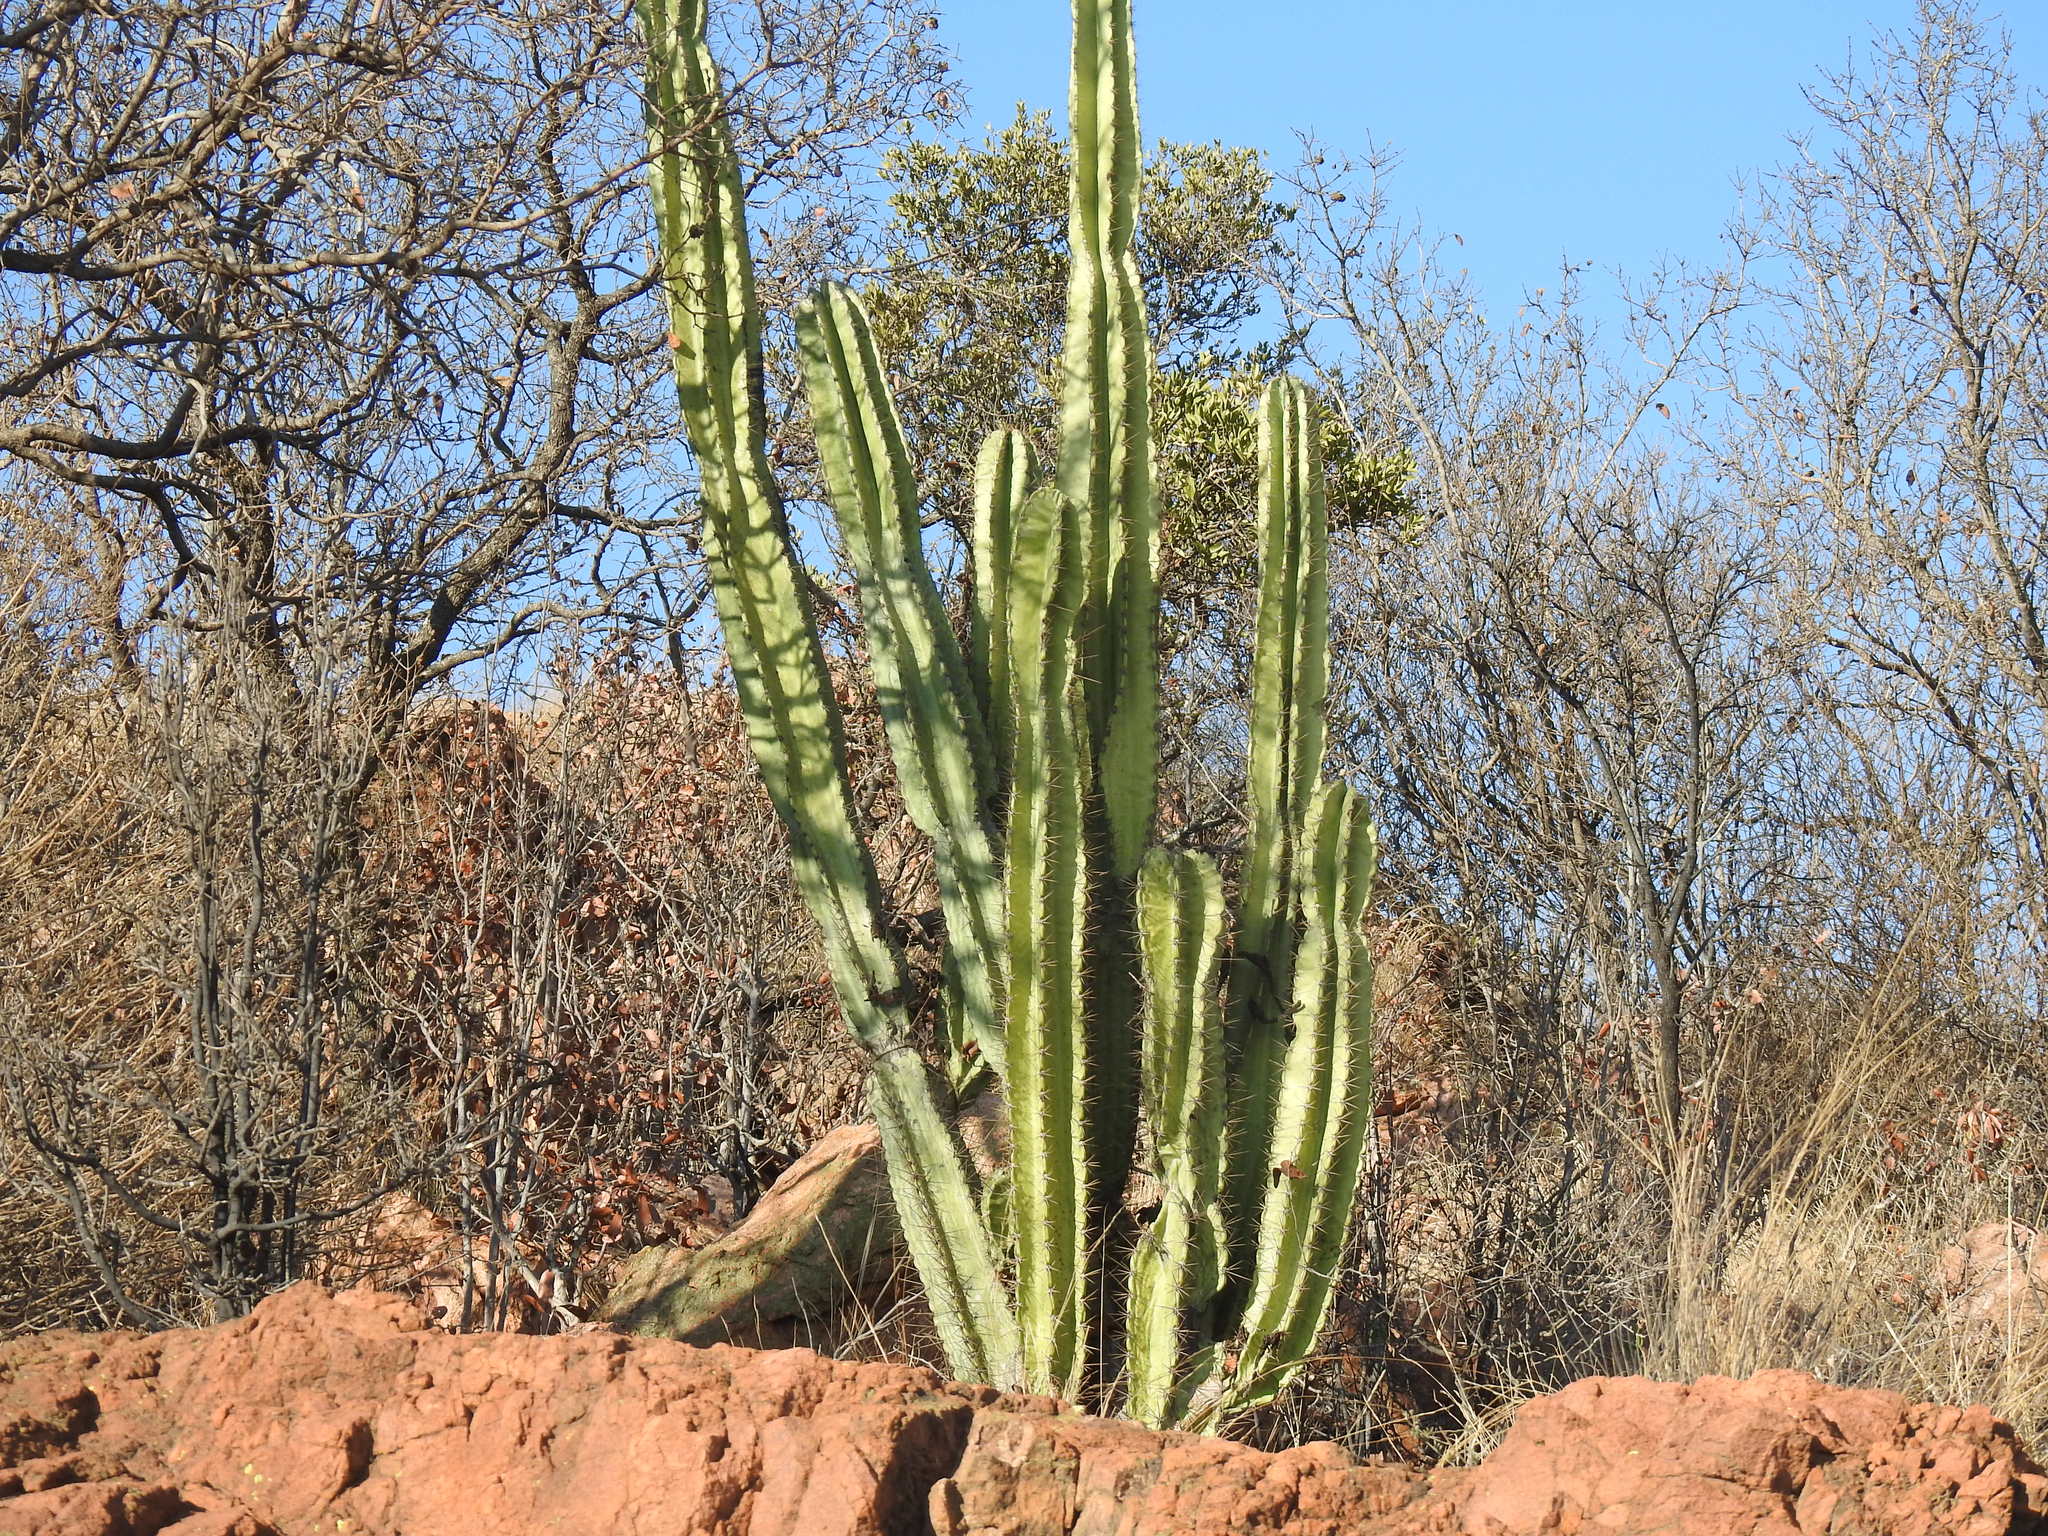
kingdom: Plantae
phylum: Tracheophyta
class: Magnoliopsida
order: Caryophyllales
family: Cactaceae
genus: Cereus
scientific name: Cereus jamacaru
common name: Queen-of-the-night
